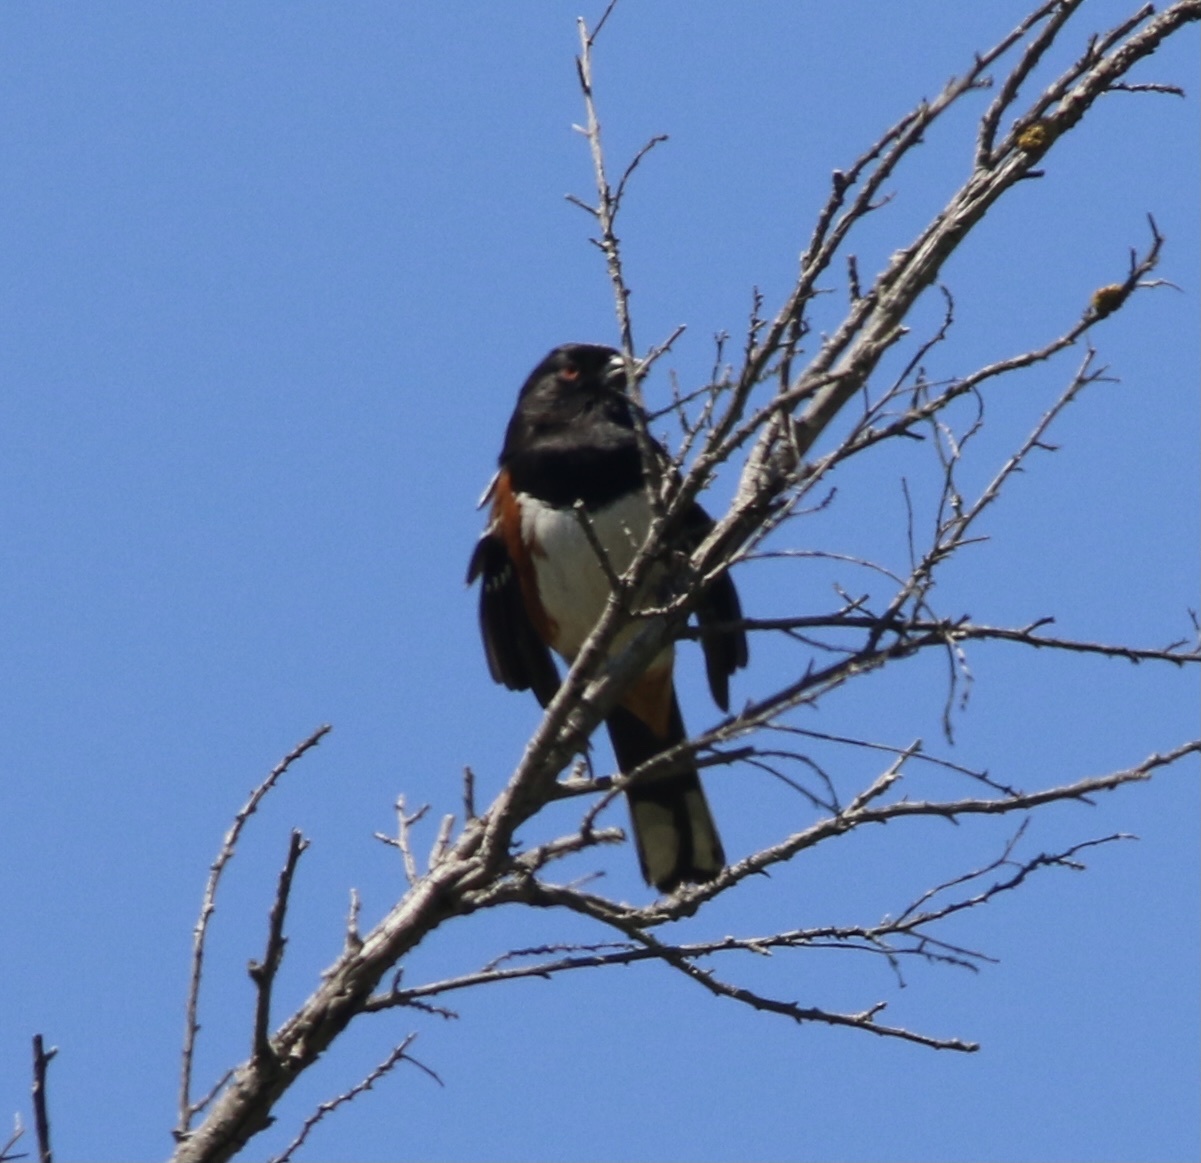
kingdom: Animalia
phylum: Chordata
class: Aves
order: Passeriformes
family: Passerellidae
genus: Pipilo
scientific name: Pipilo maculatus
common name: Spotted towhee
